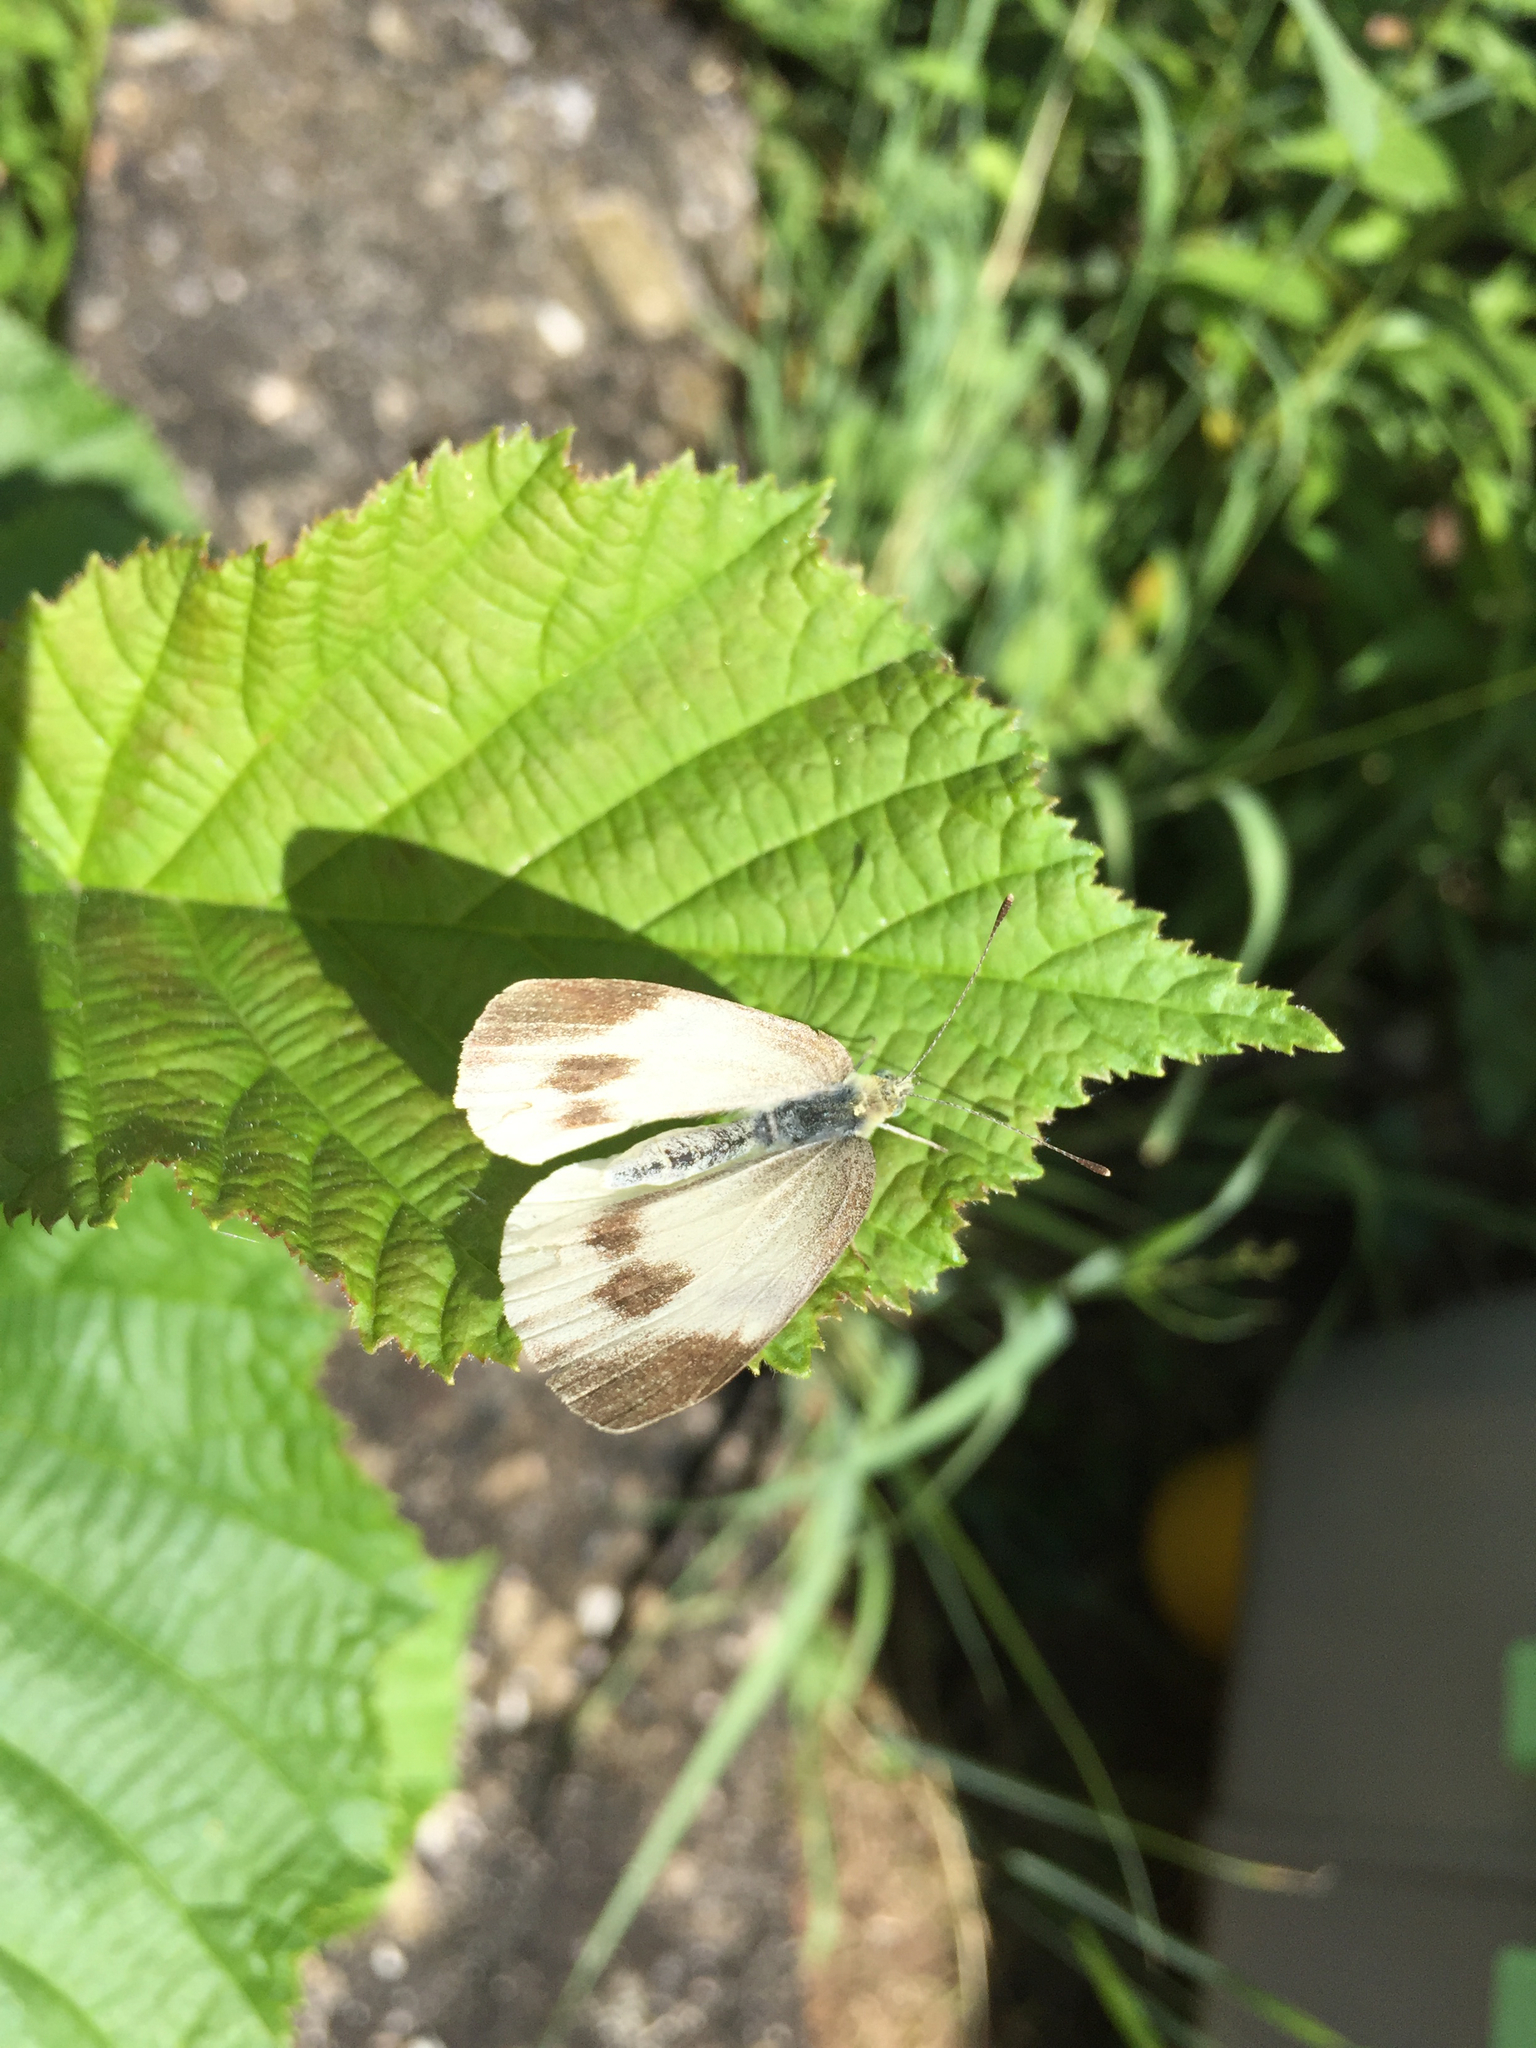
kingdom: Animalia
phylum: Arthropoda
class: Insecta
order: Lepidoptera
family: Pieridae
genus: Pieris
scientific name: Pieris mannii
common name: Southern small white
